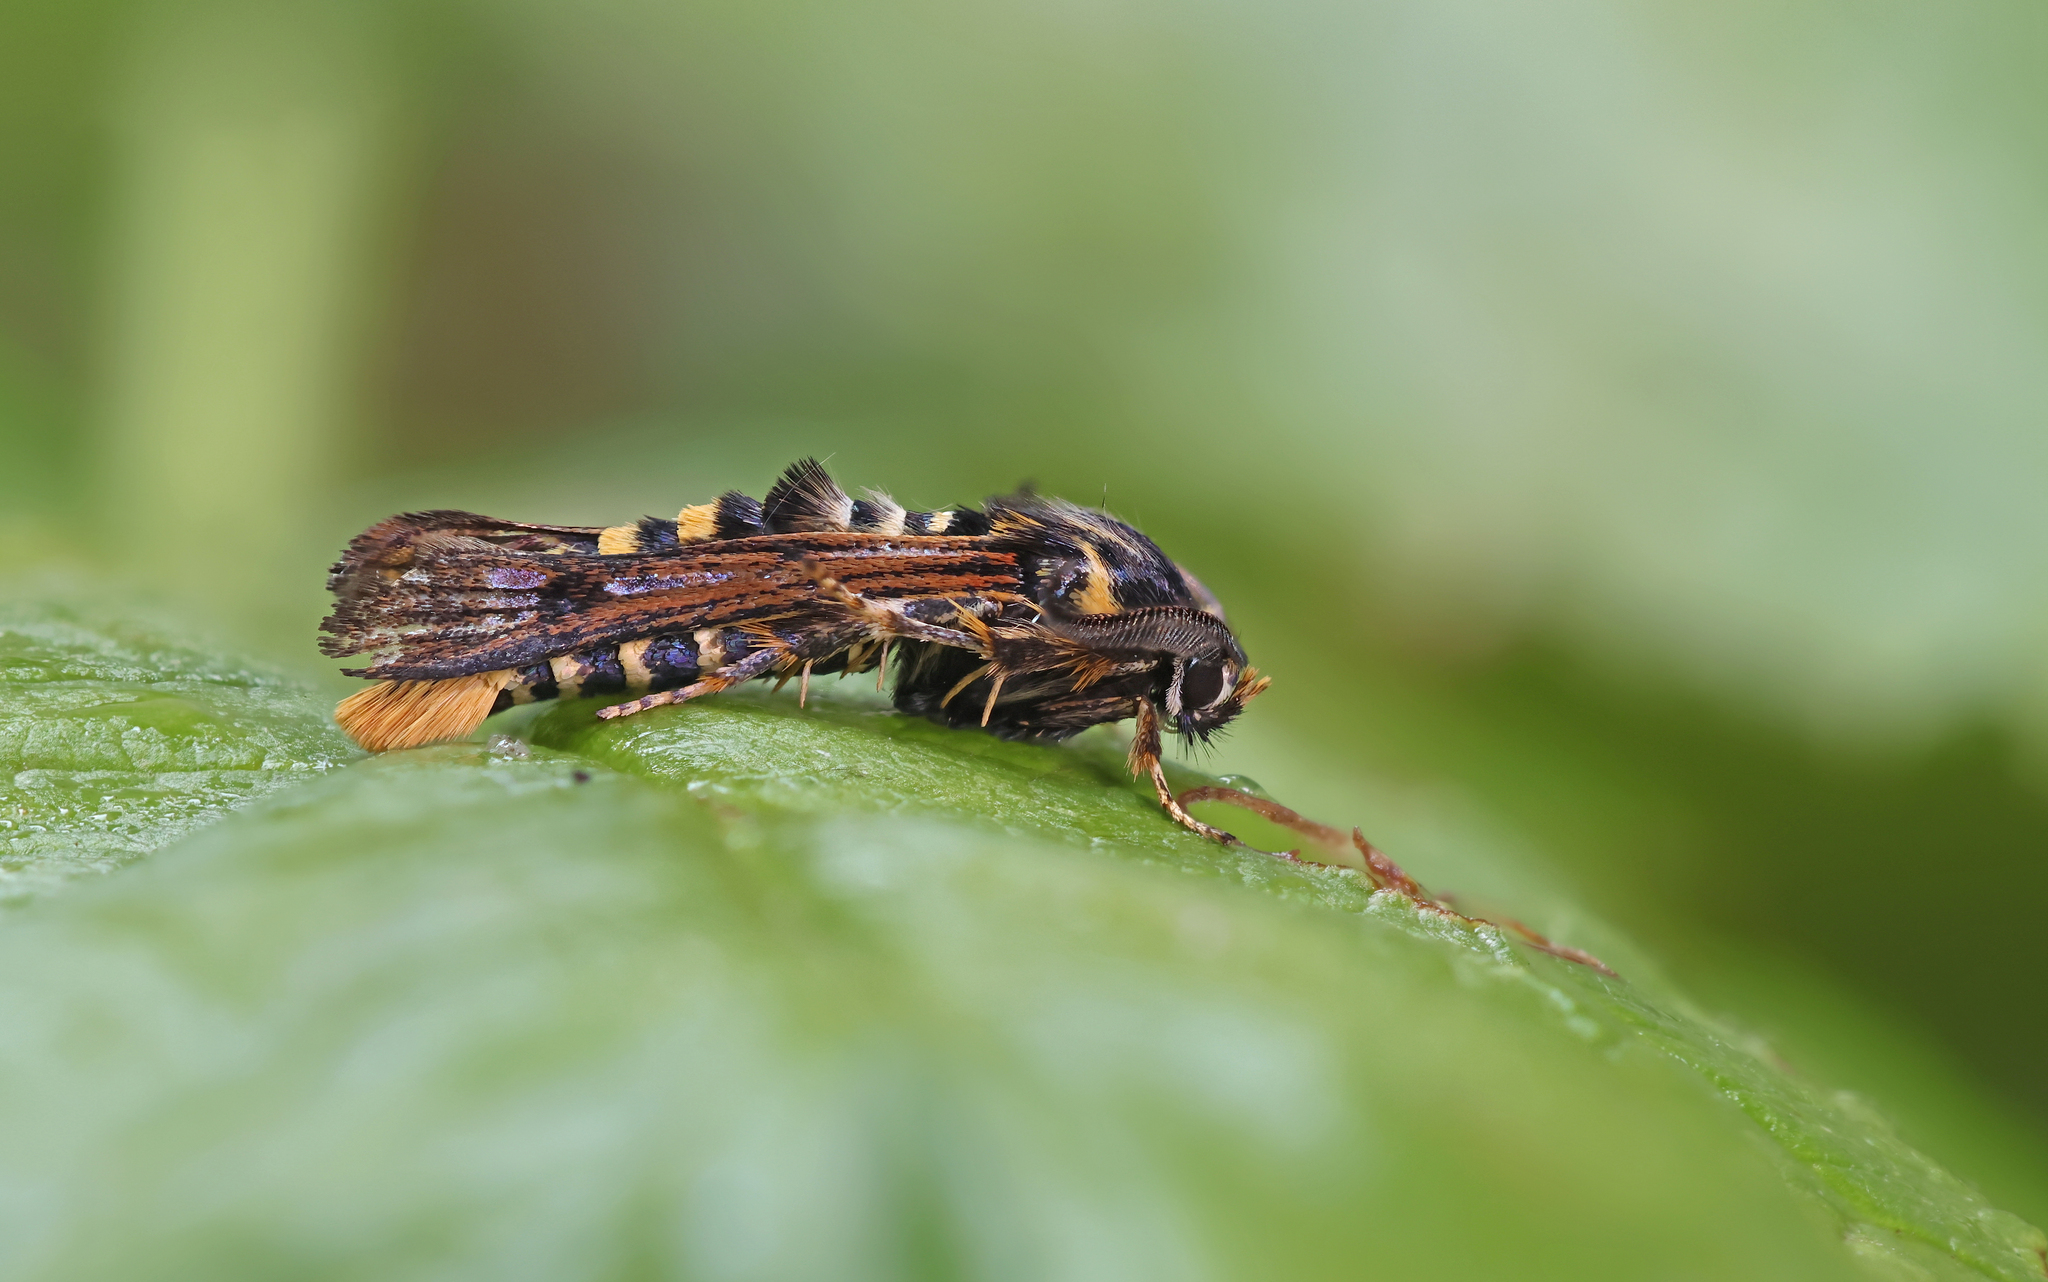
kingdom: Animalia
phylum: Arthropoda
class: Insecta
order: Lepidoptera
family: Sesiidae
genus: Pennisetia
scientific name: Pennisetia hylaeiformis
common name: Raspberry clearwing
